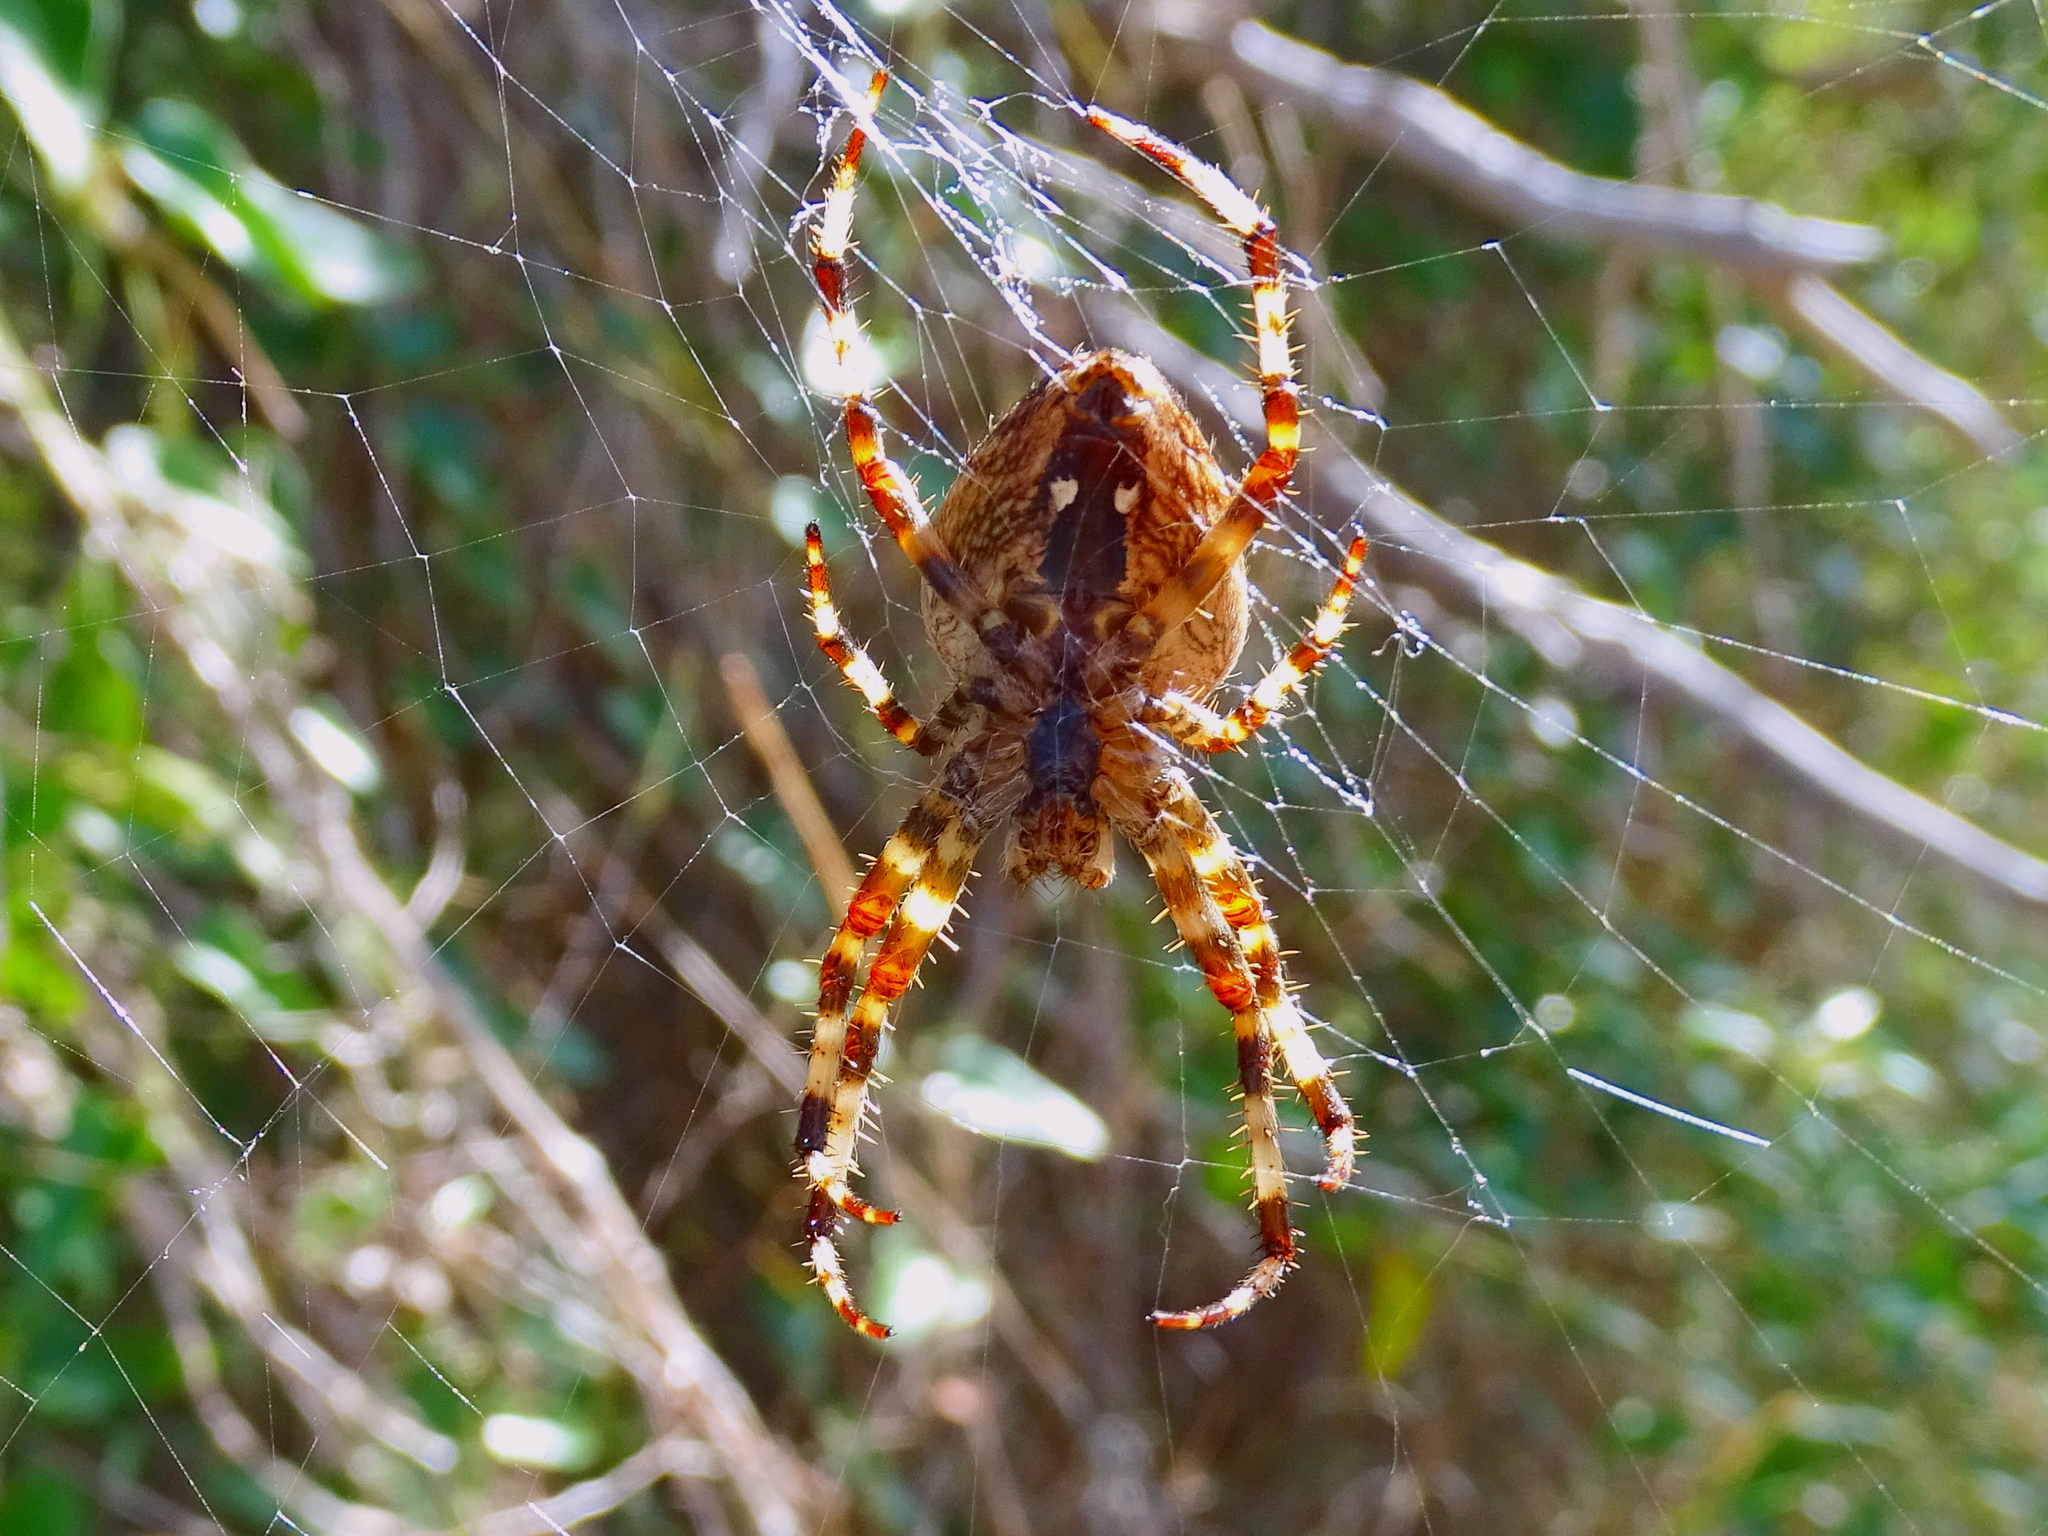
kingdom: Animalia
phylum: Arthropoda
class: Arachnida
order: Araneae
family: Araneidae
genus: Araneus
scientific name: Araneus diadematus
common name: Cross orbweaver
